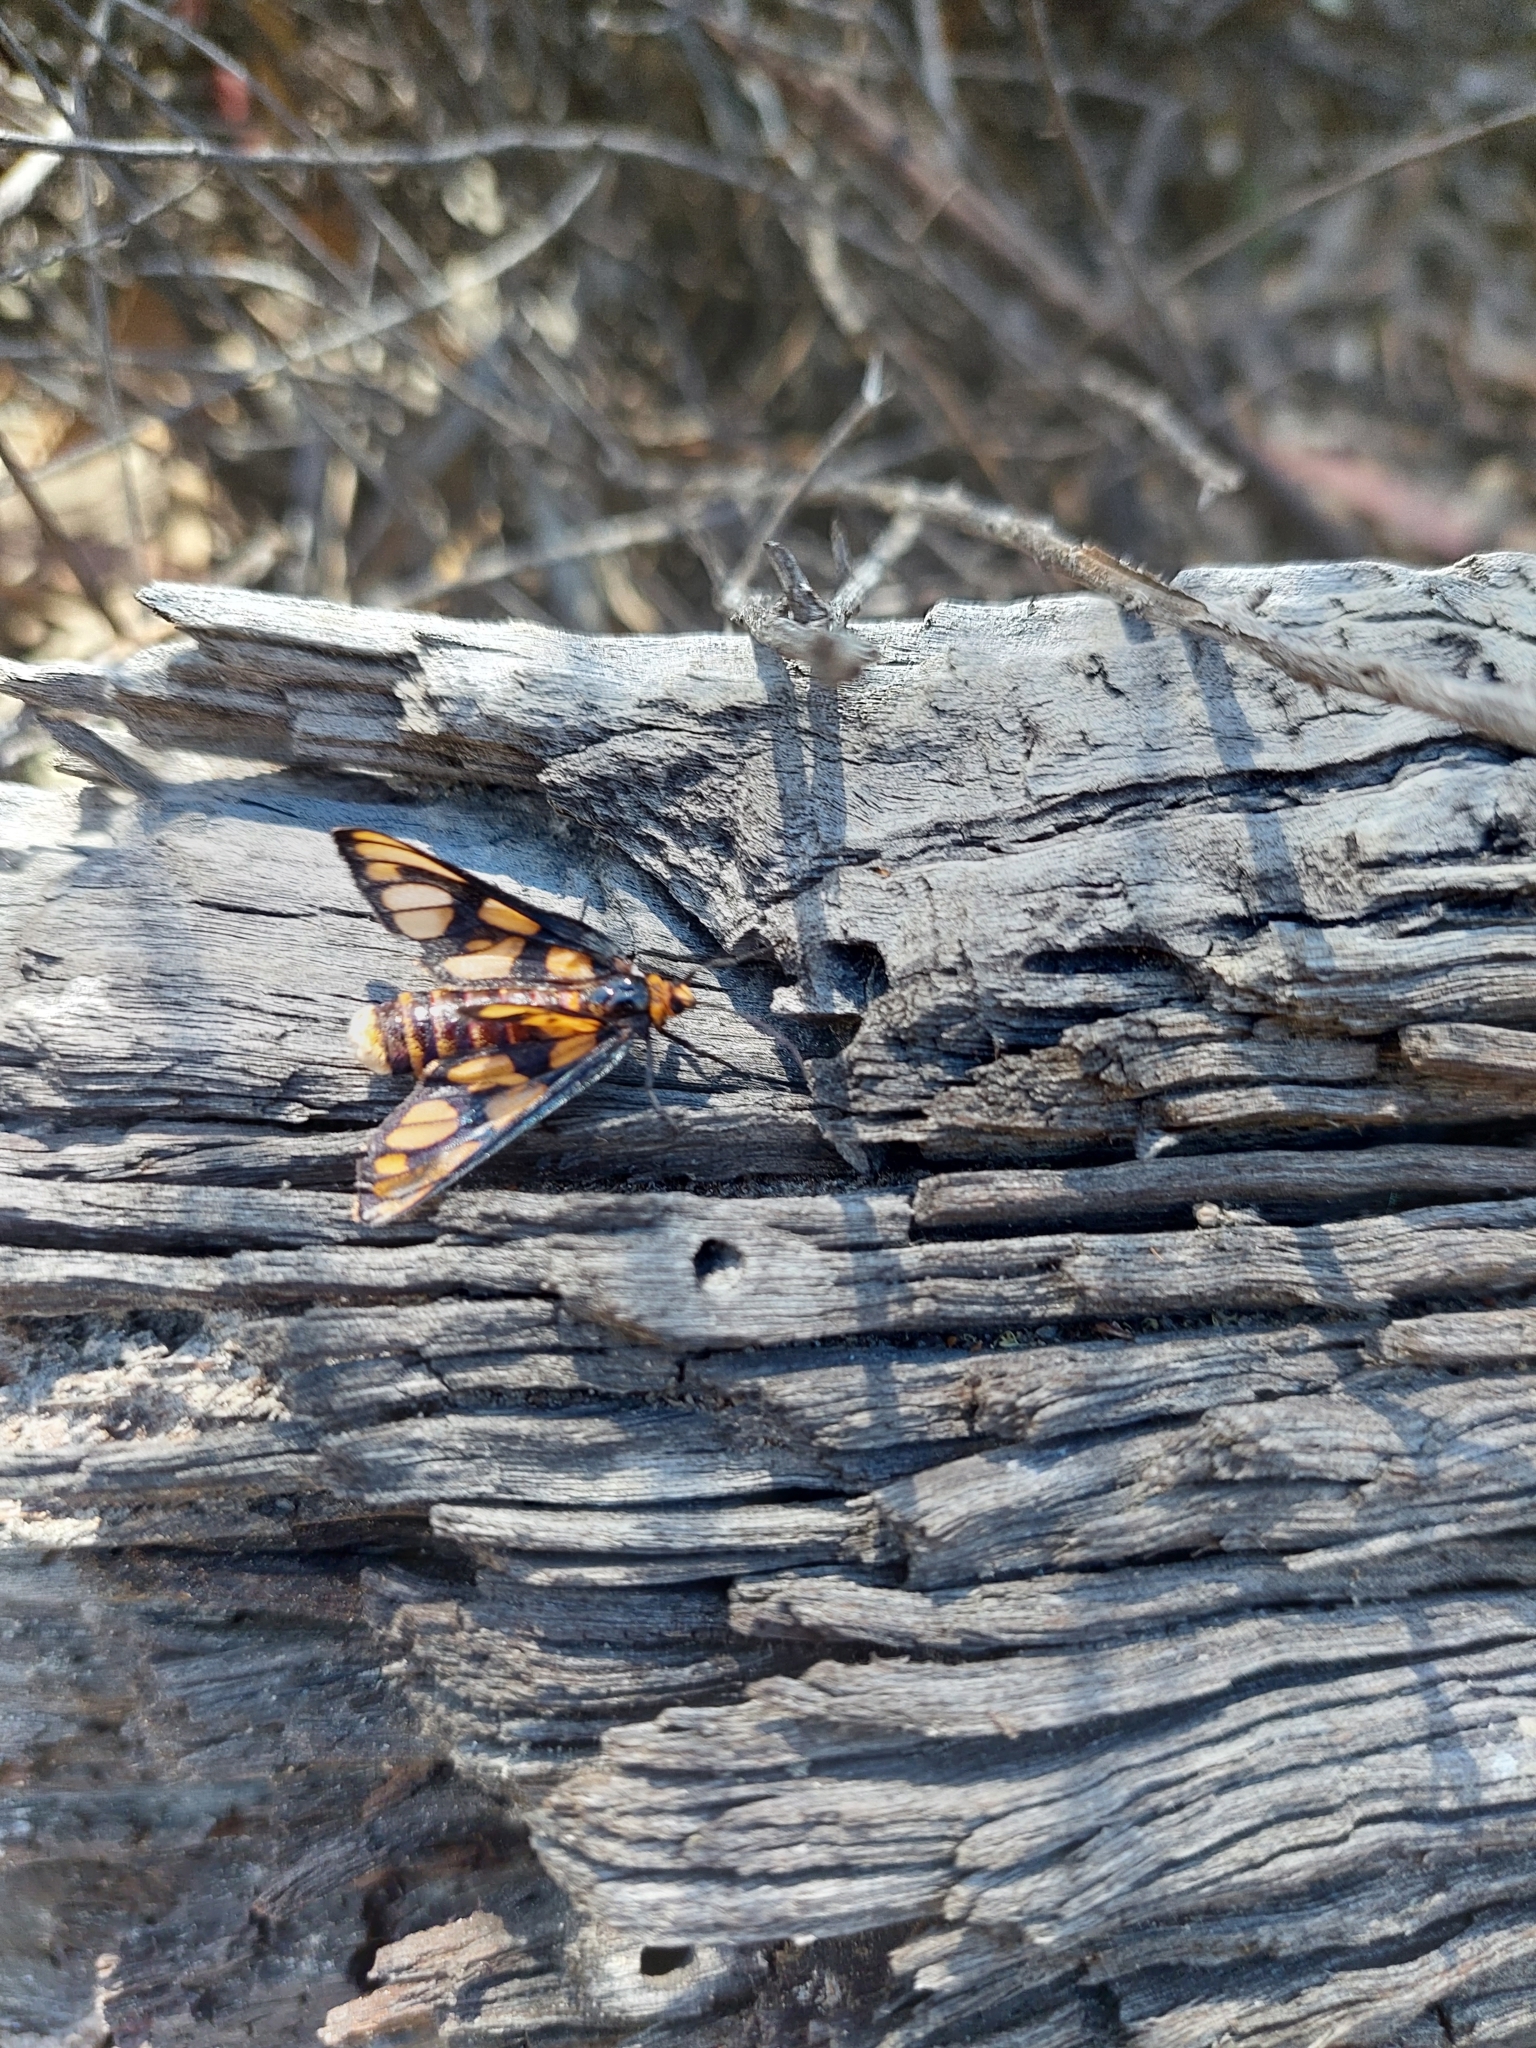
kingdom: Animalia
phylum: Arthropoda
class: Insecta
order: Lepidoptera
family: Erebidae
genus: Amata
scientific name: Amata aperta
